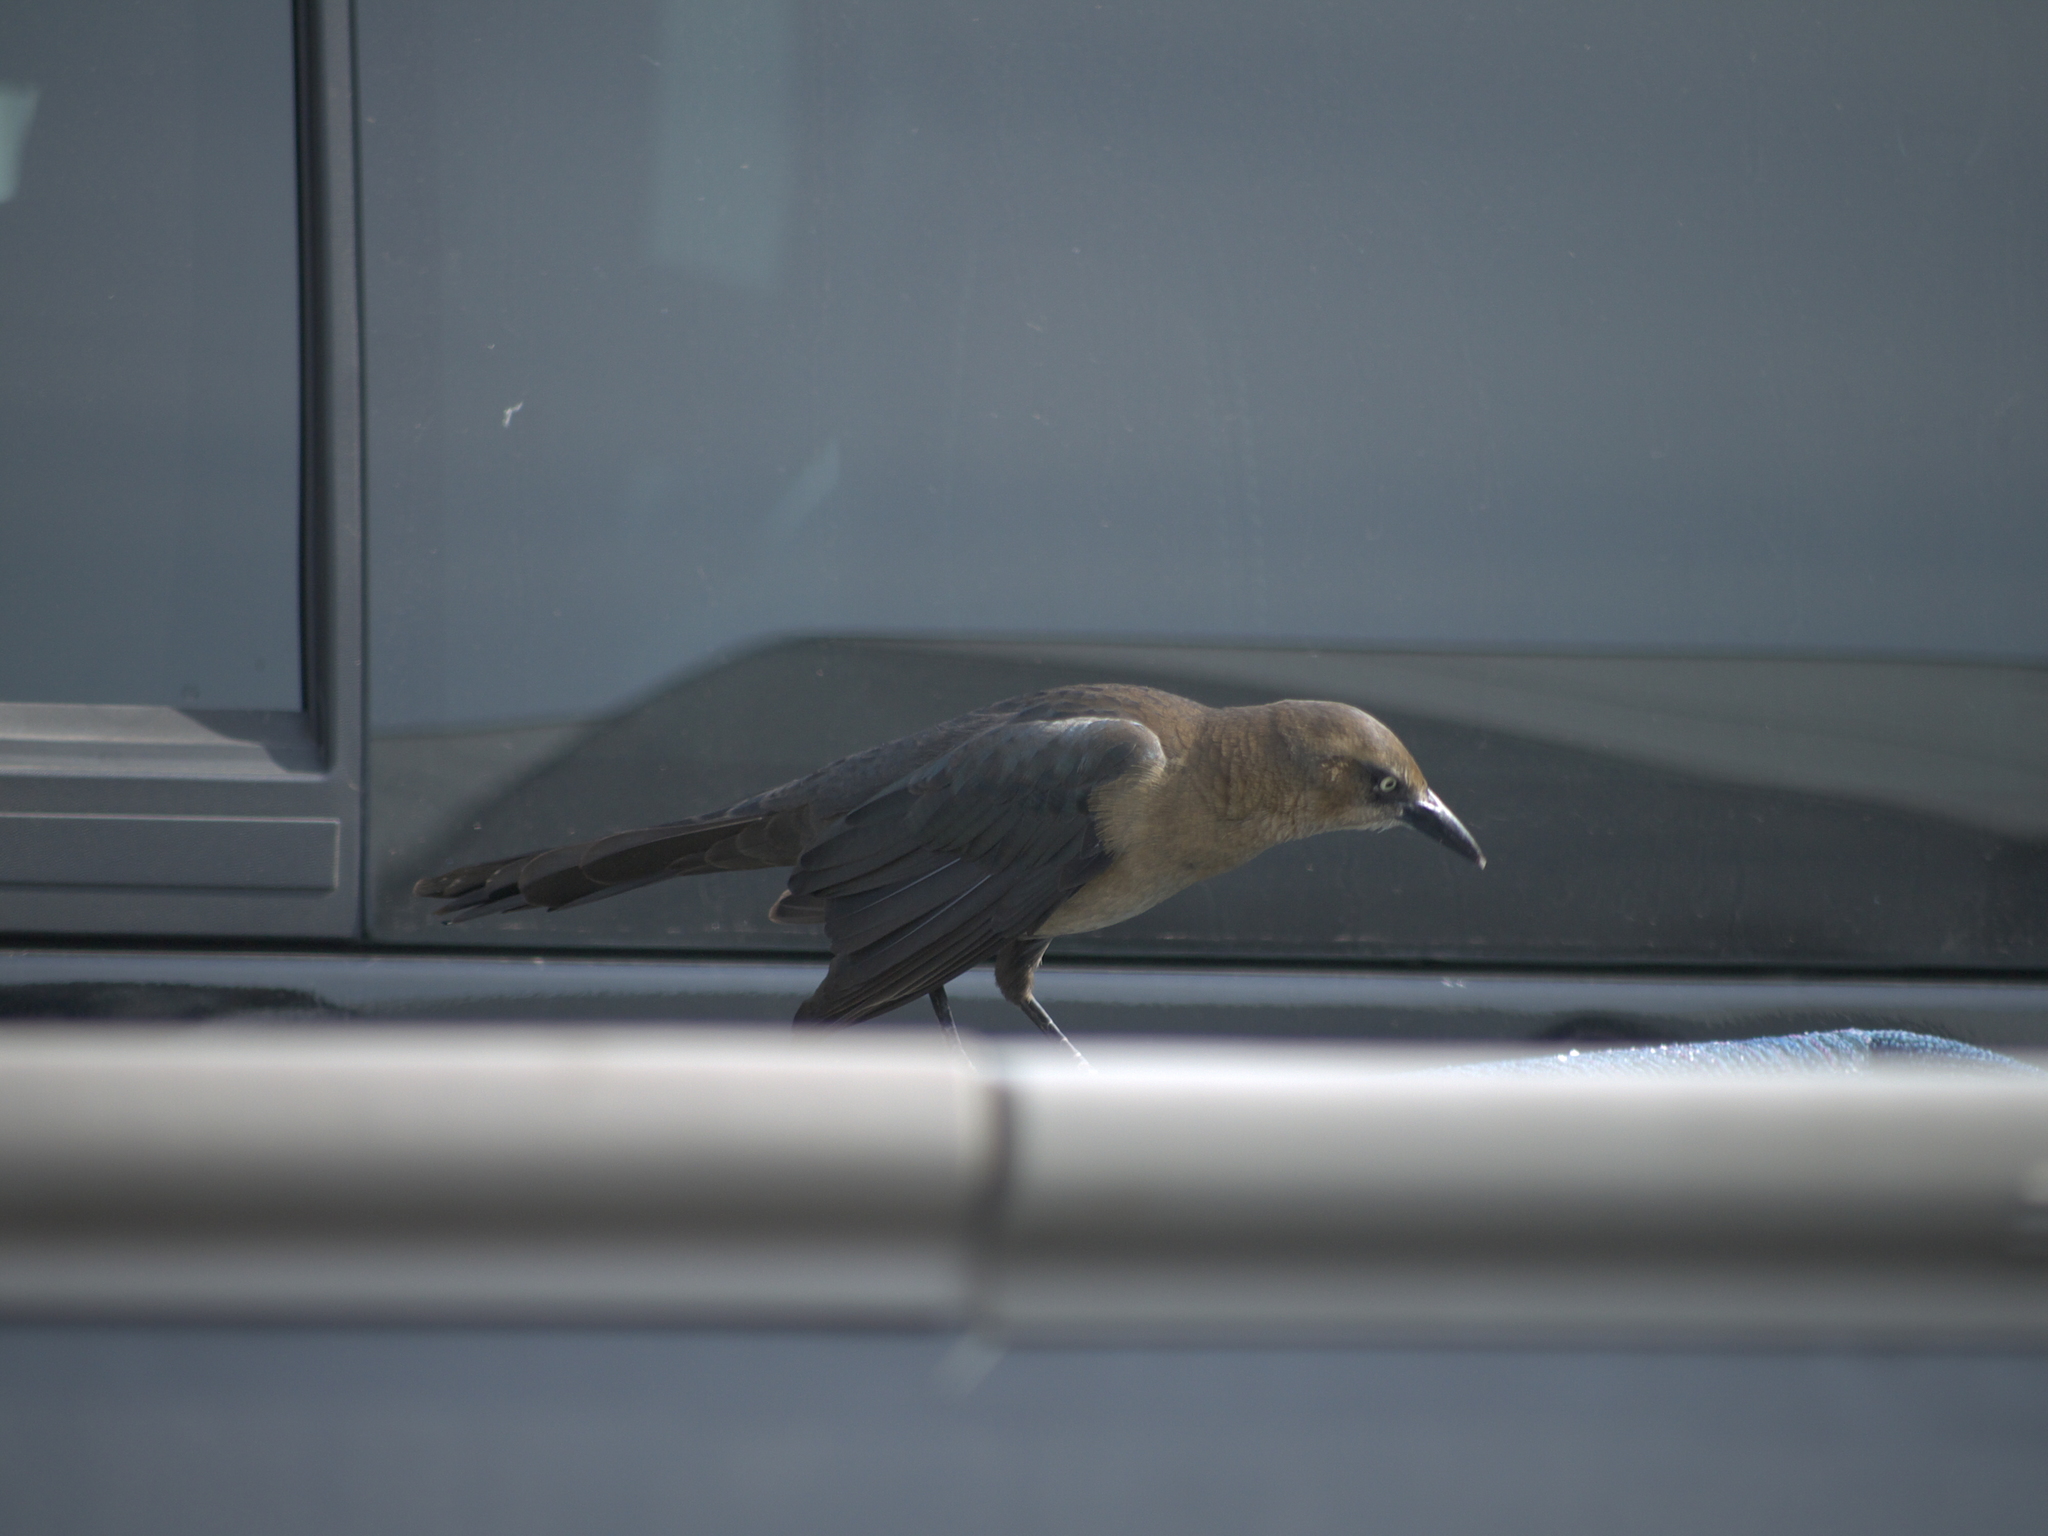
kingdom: Animalia
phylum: Chordata
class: Aves
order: Passeriformes
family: Icteridae
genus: Quiscalus
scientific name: Quiscalus mexicanus
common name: Great-tailed grackle
